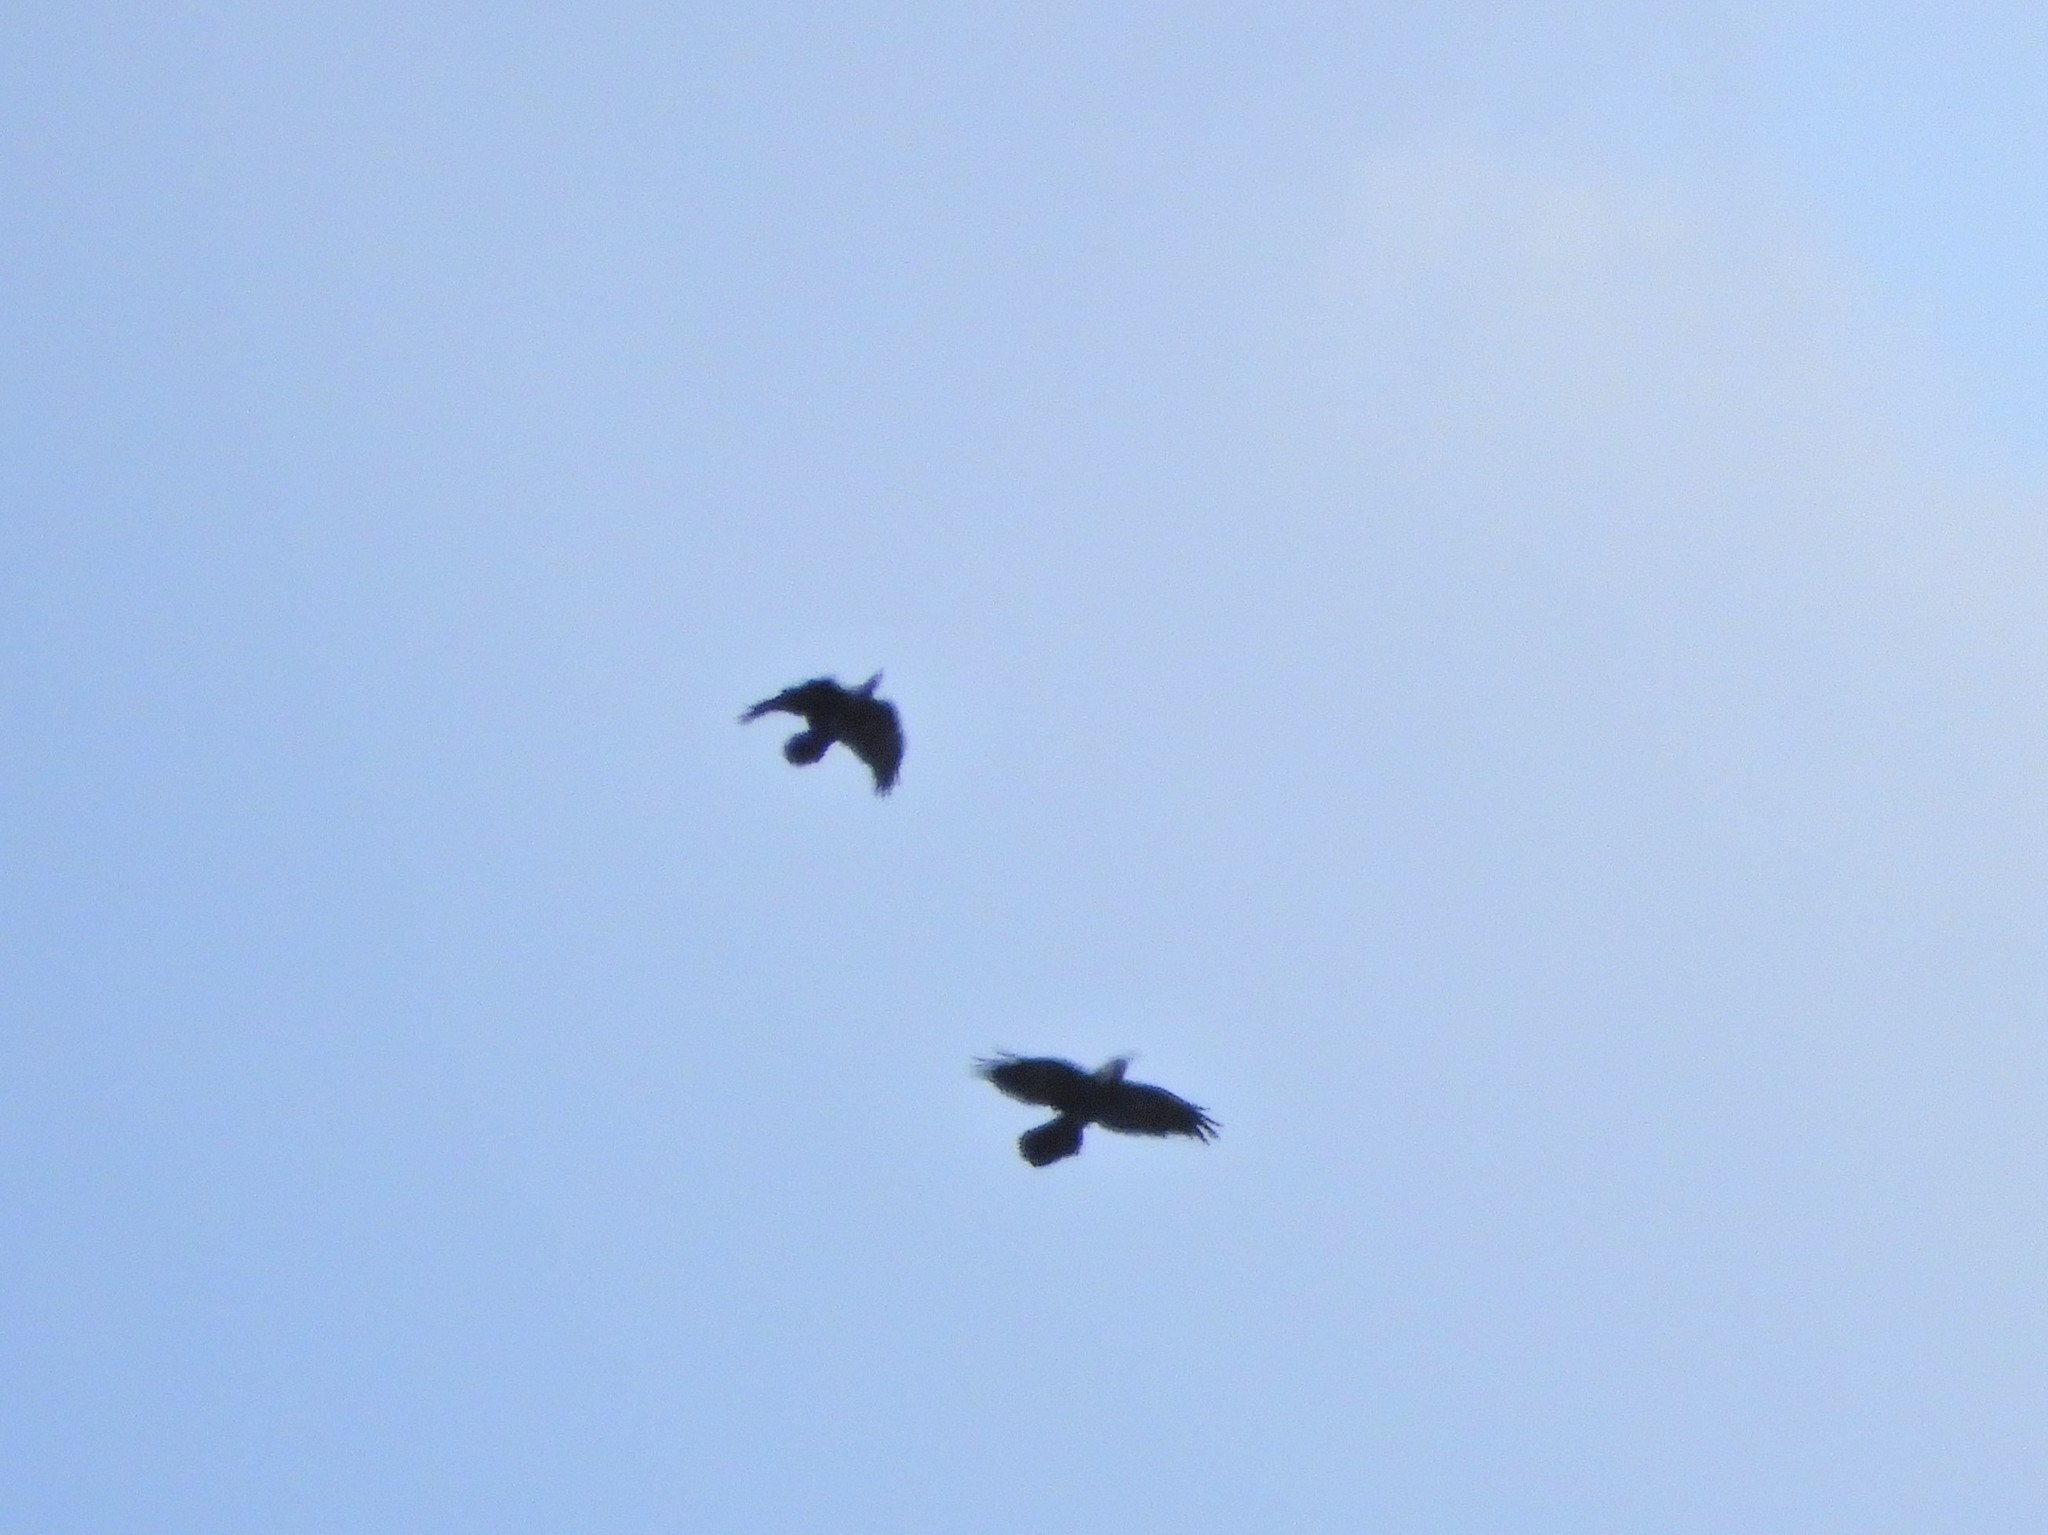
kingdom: Animalia
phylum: Chordata
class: Aves
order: Passeriformes
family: Corvidae
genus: Corvus
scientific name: Corvus corax
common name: Common raven
